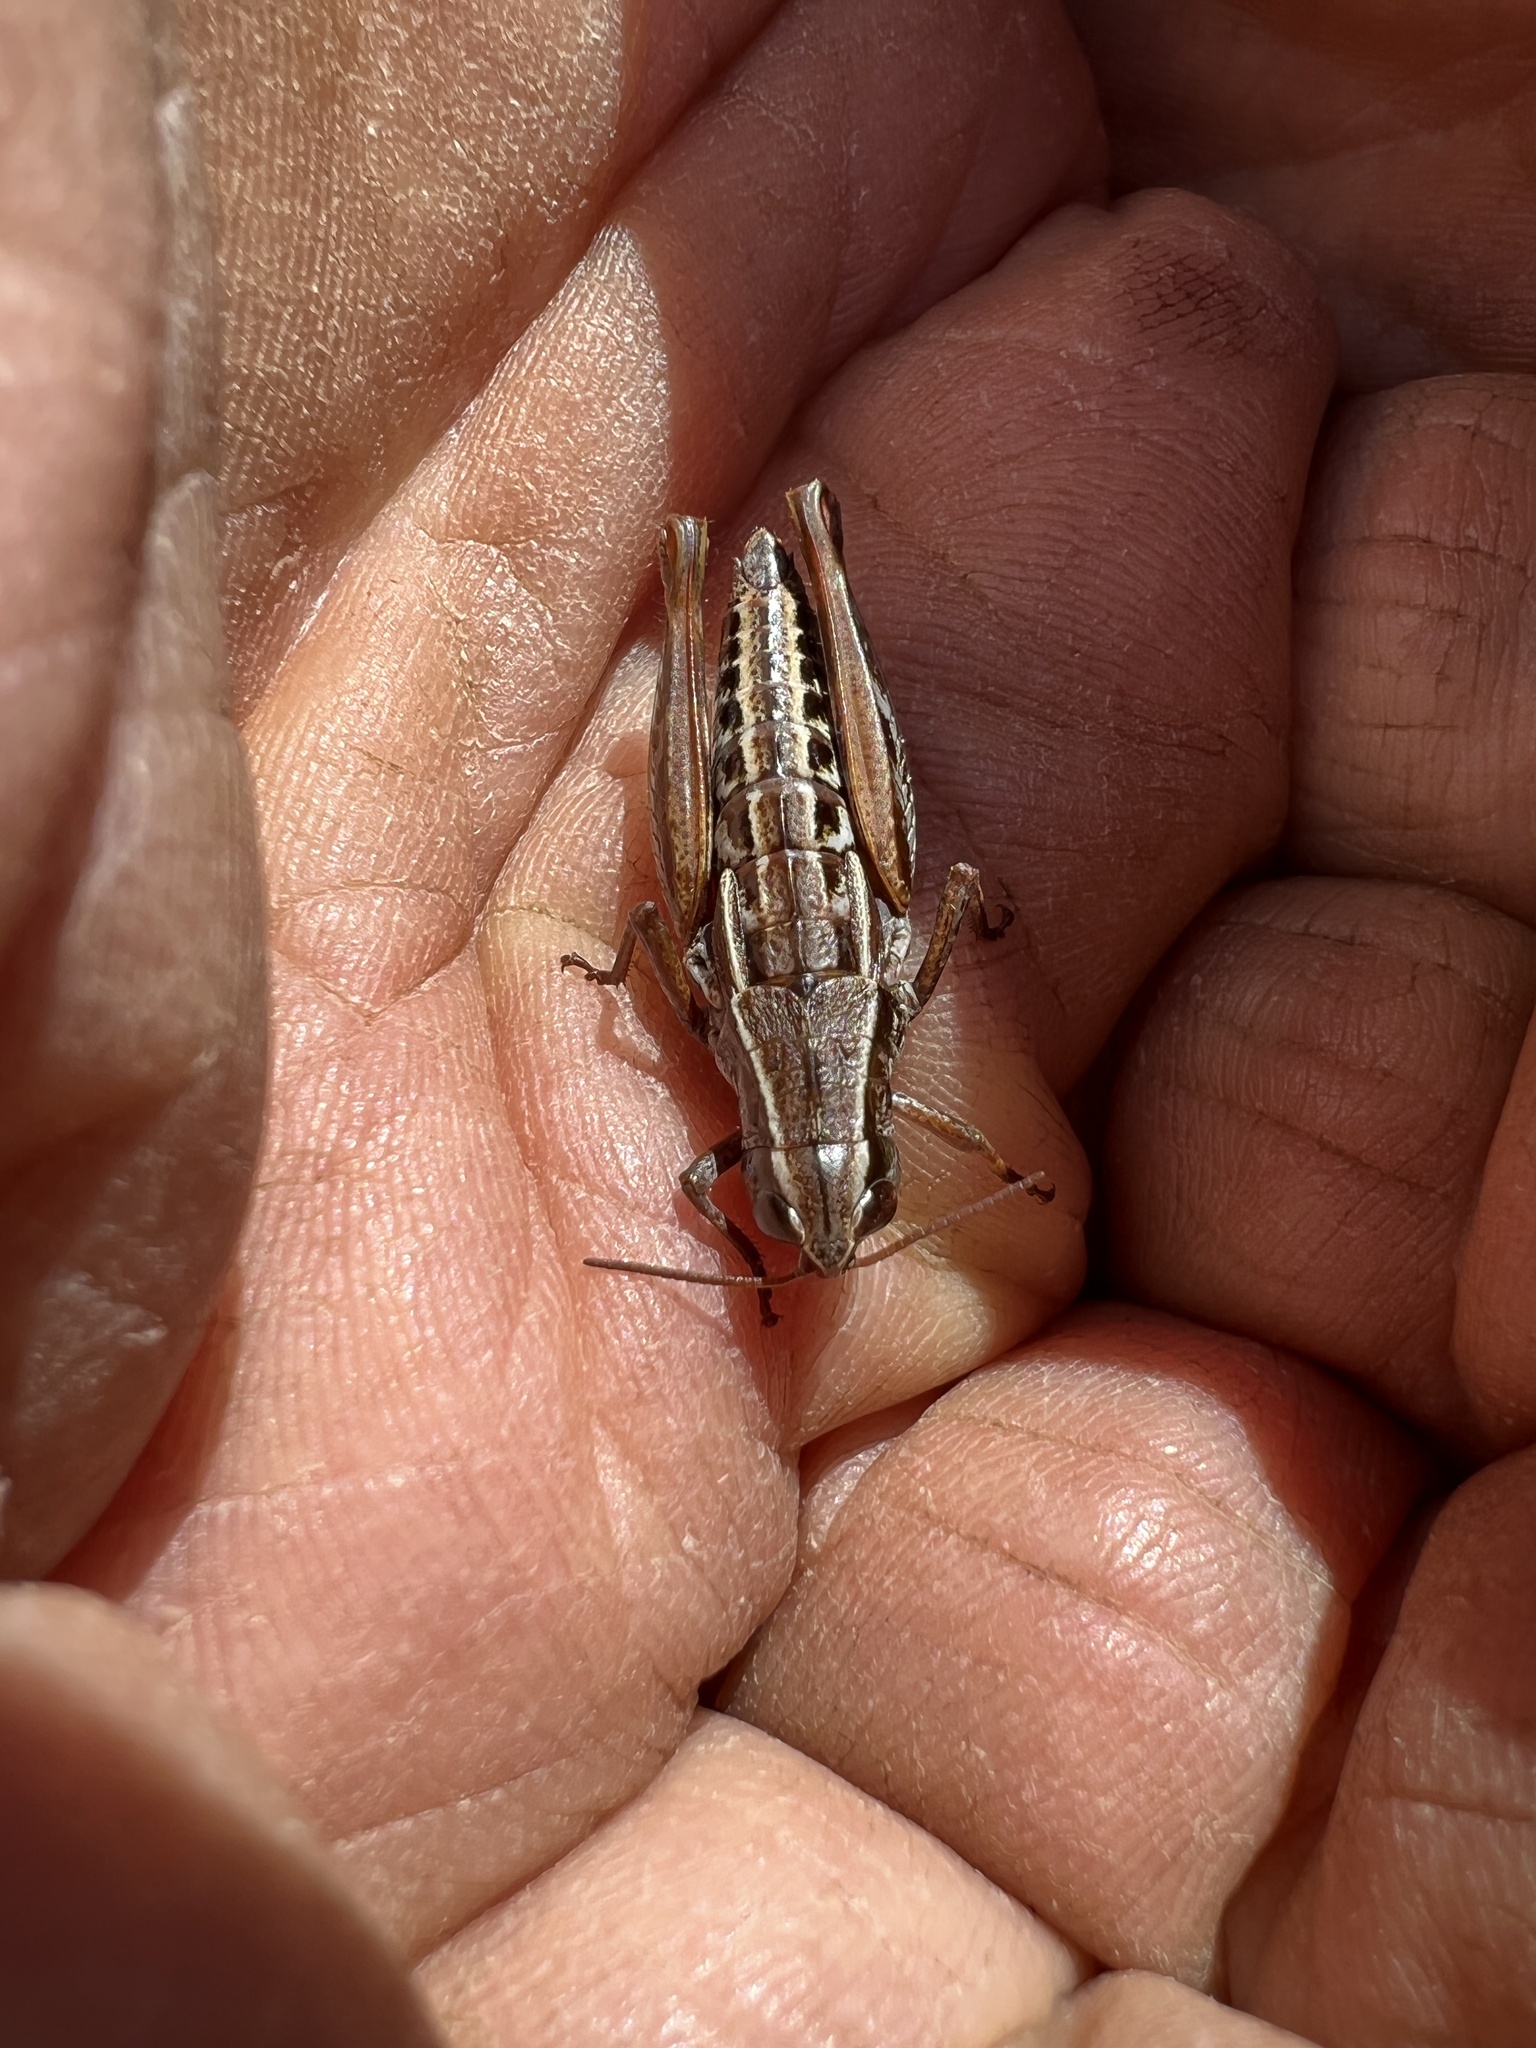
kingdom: Animalia
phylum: Arthropoda
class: Insecta
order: Orthoptera
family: Acrididae
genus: Sigaus
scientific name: Sigaus
